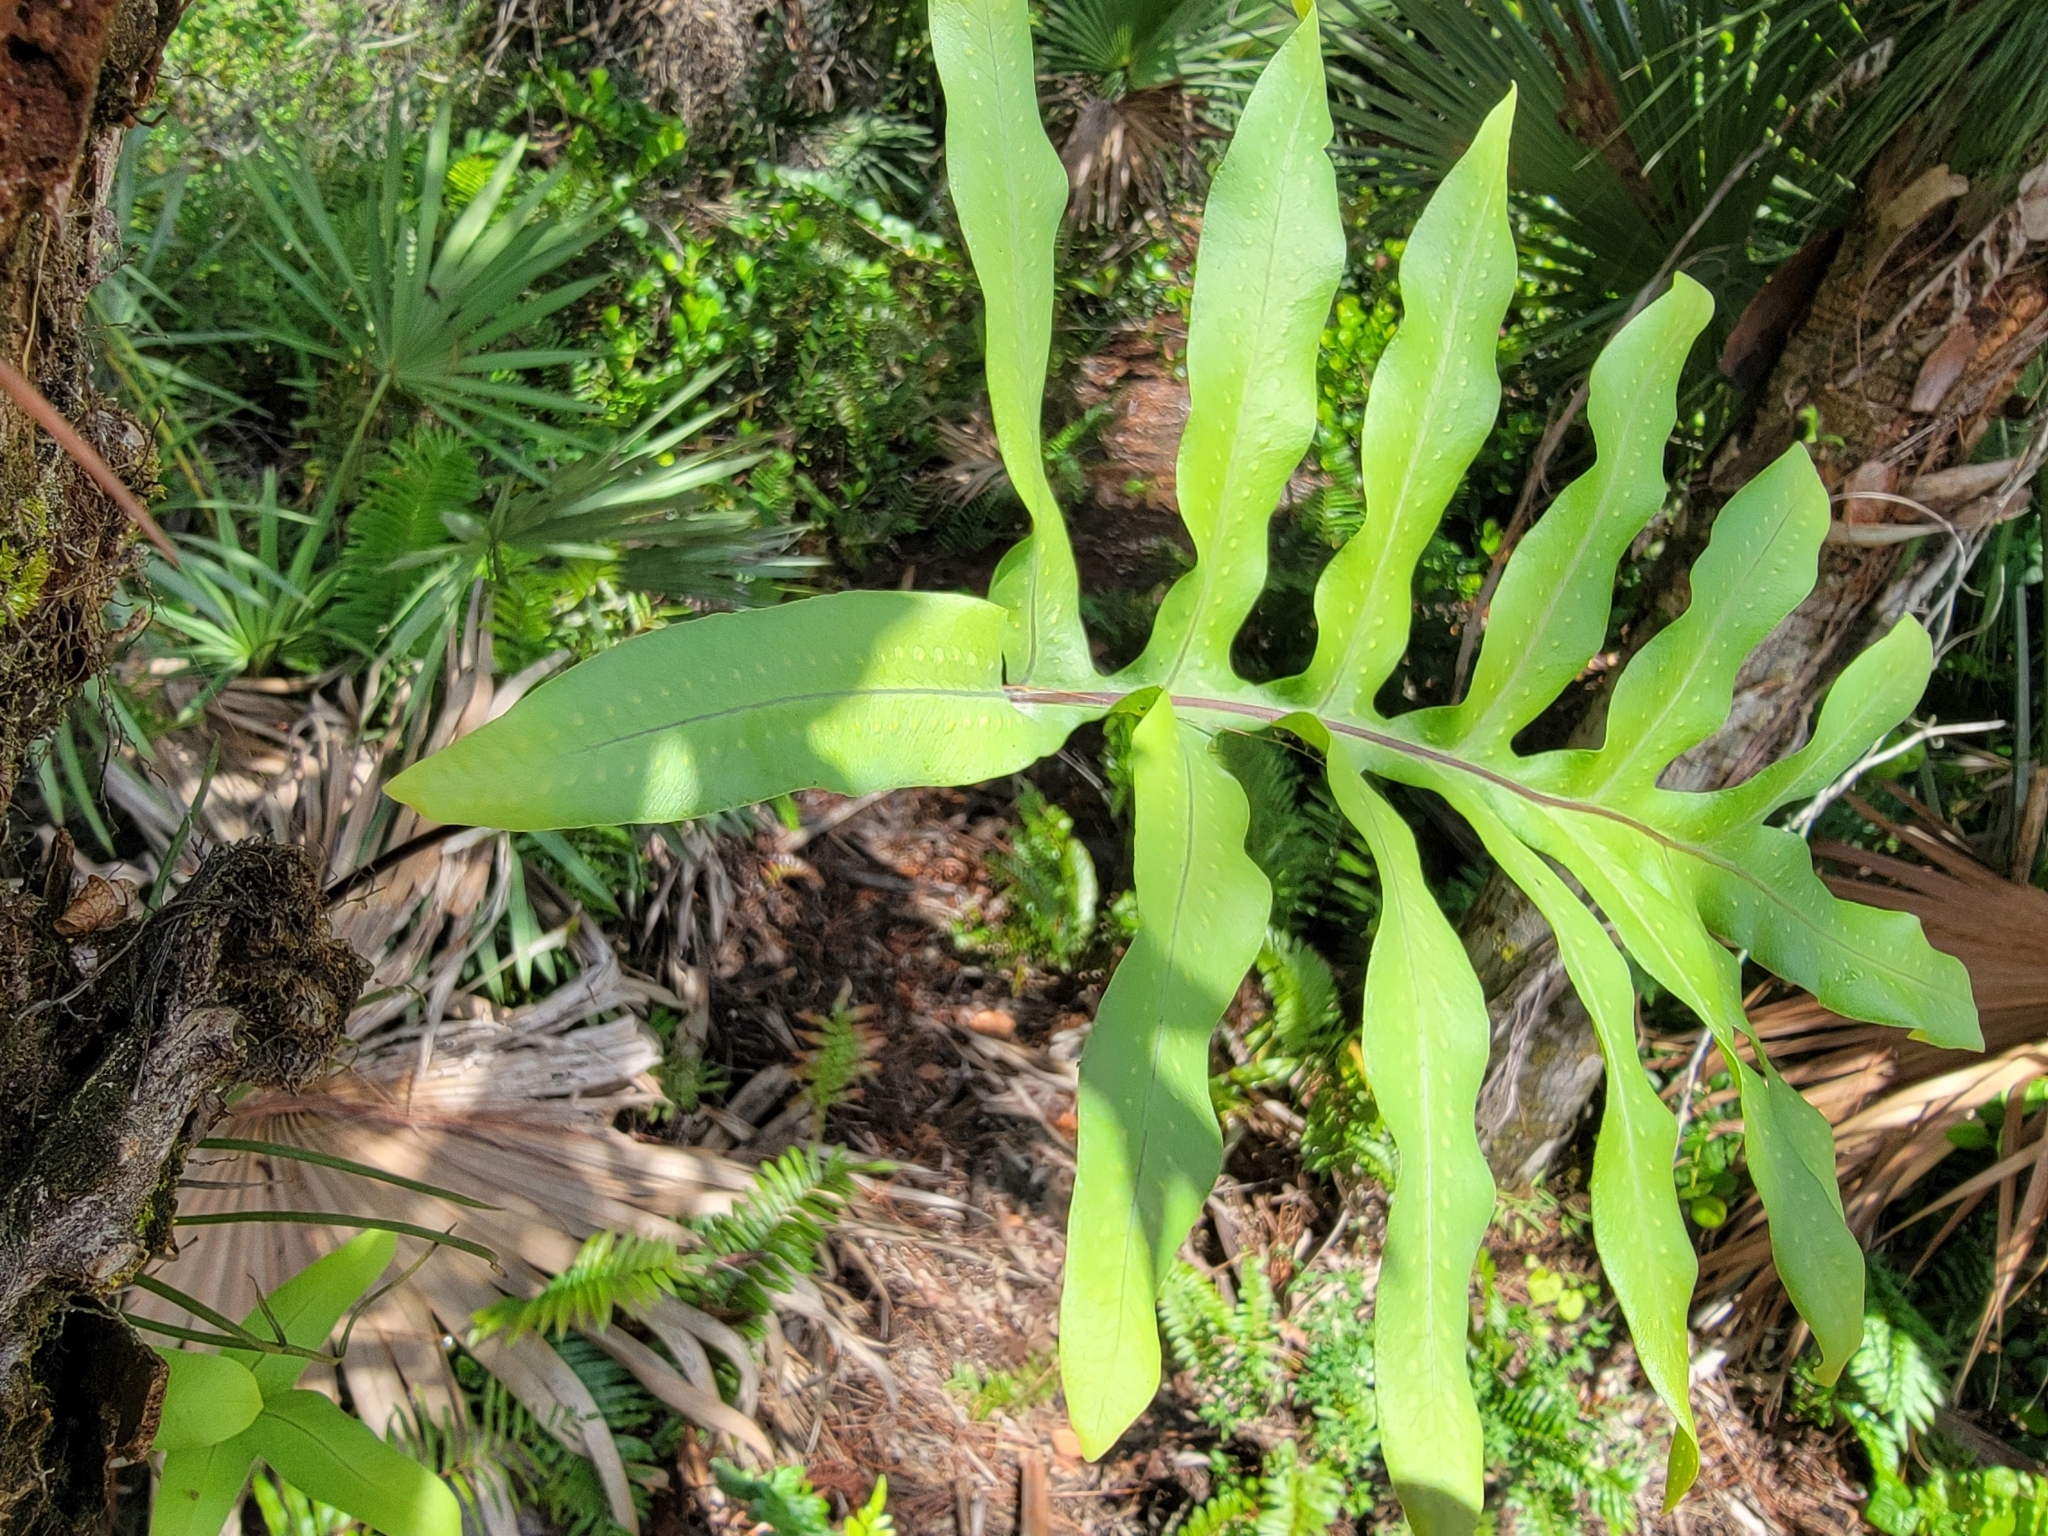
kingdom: Plantae
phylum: Tracheophyta
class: Polypodiopsida
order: Polypodiales
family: Polypodiaceae
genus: Phlebodium
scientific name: Phlebodium aureum
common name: Gold-foot fern
